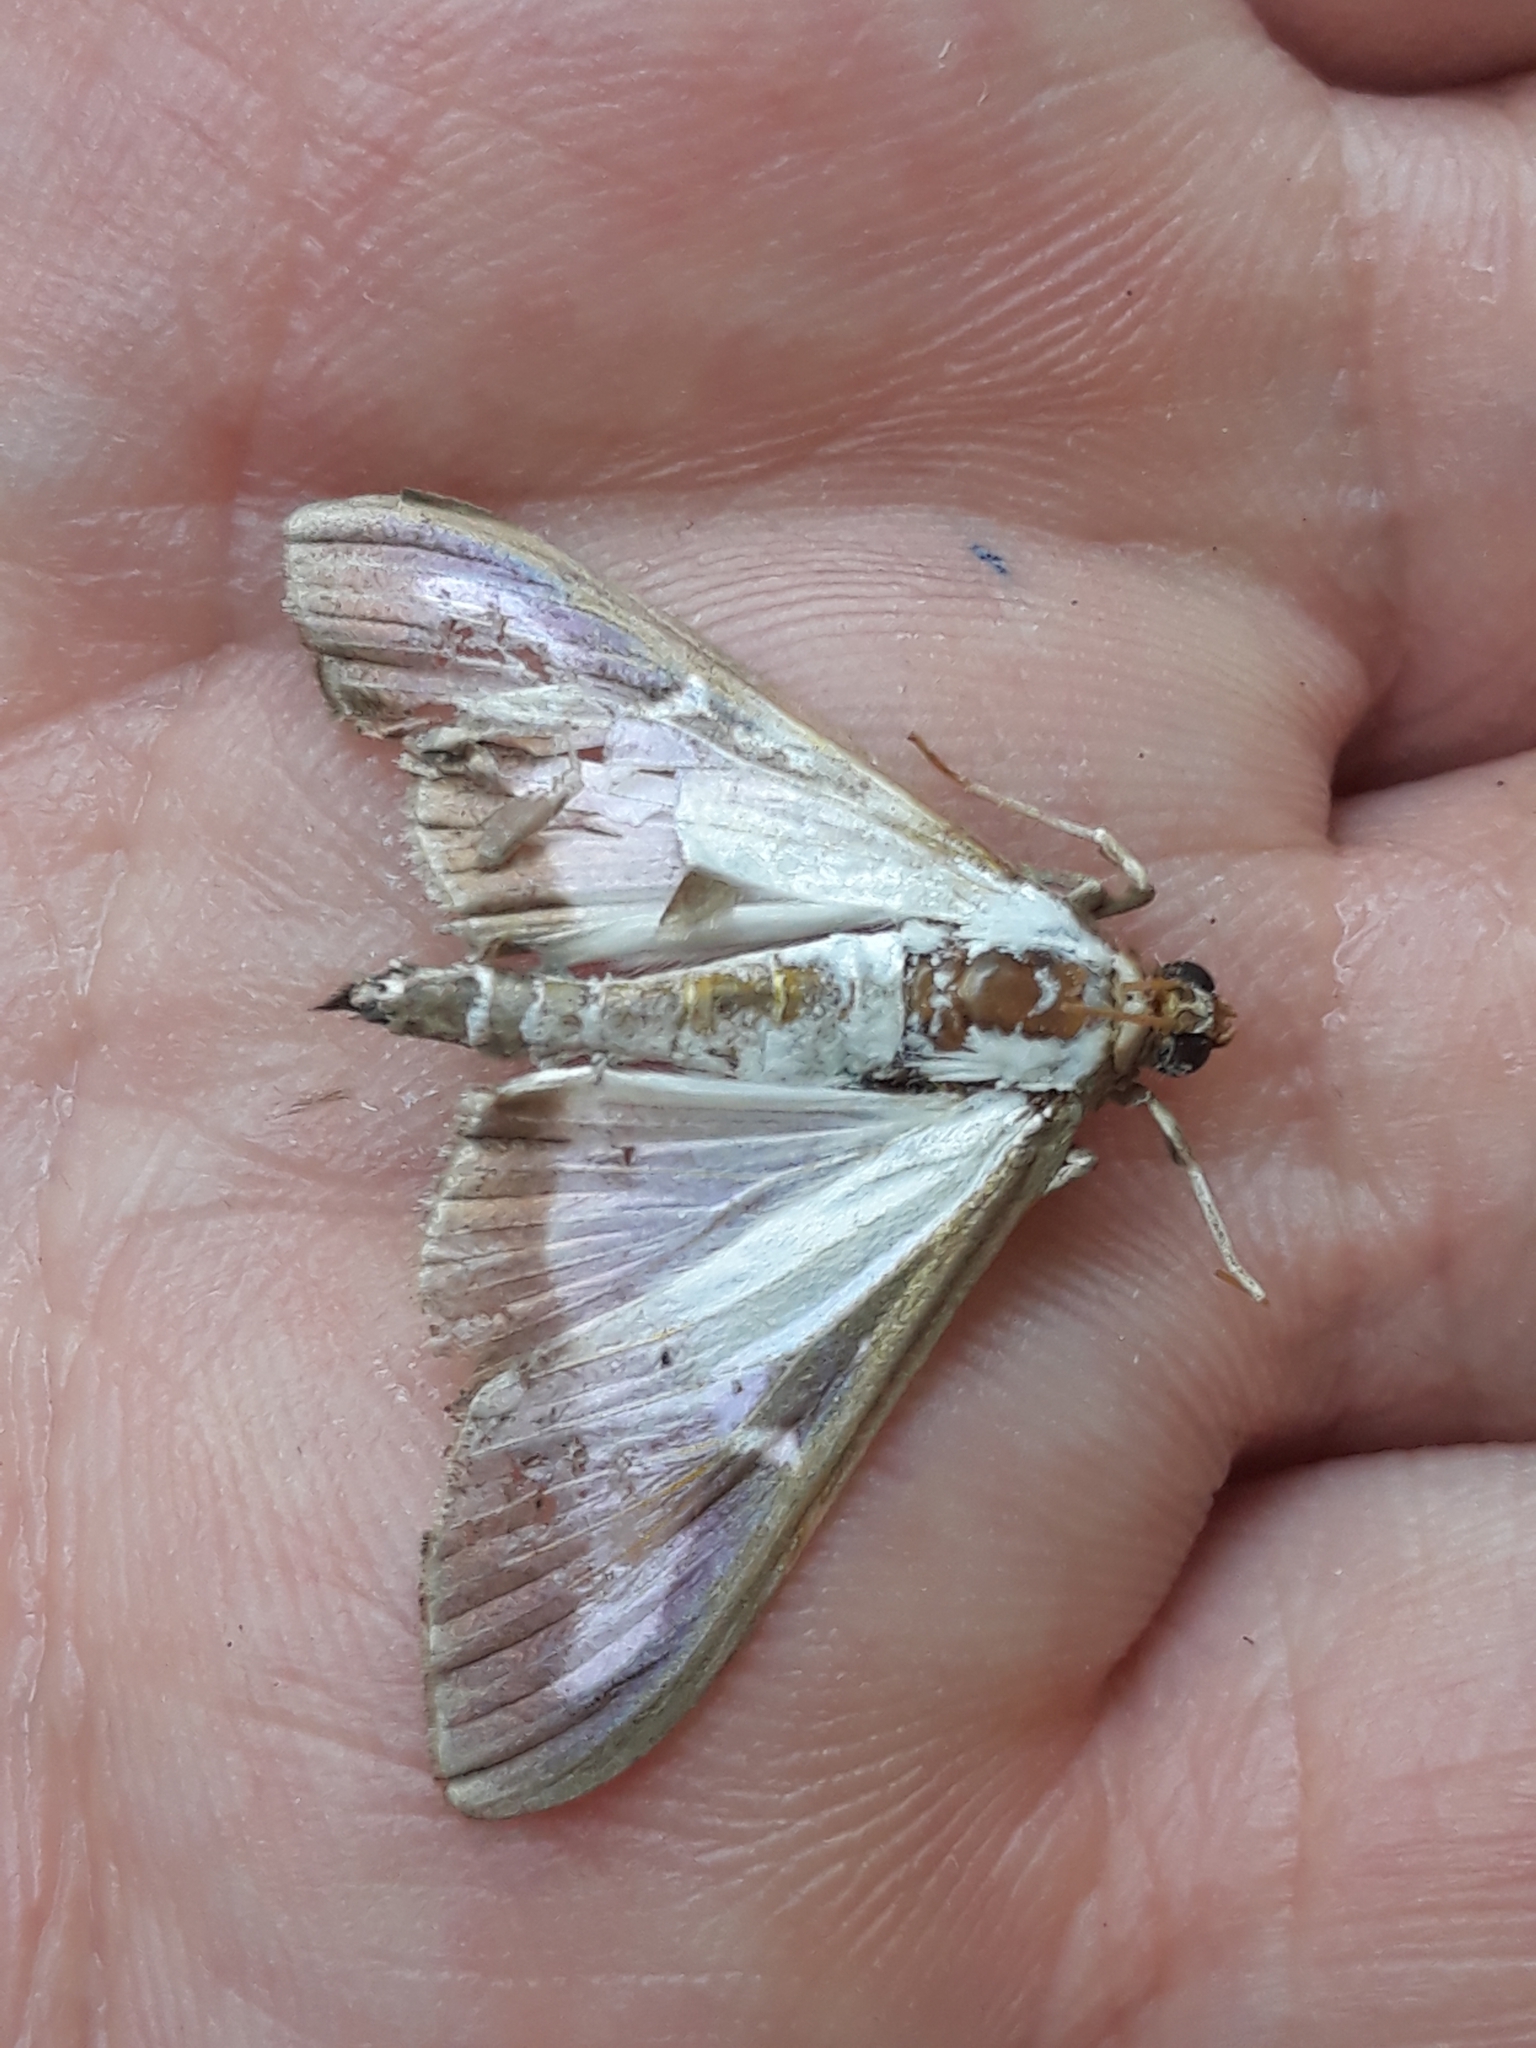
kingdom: Animalia
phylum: Arthropoda
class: Insecta
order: Lepidoptera
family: Crambidae
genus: Cydalima
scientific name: Cydalima perspectalis
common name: Box tree moth
